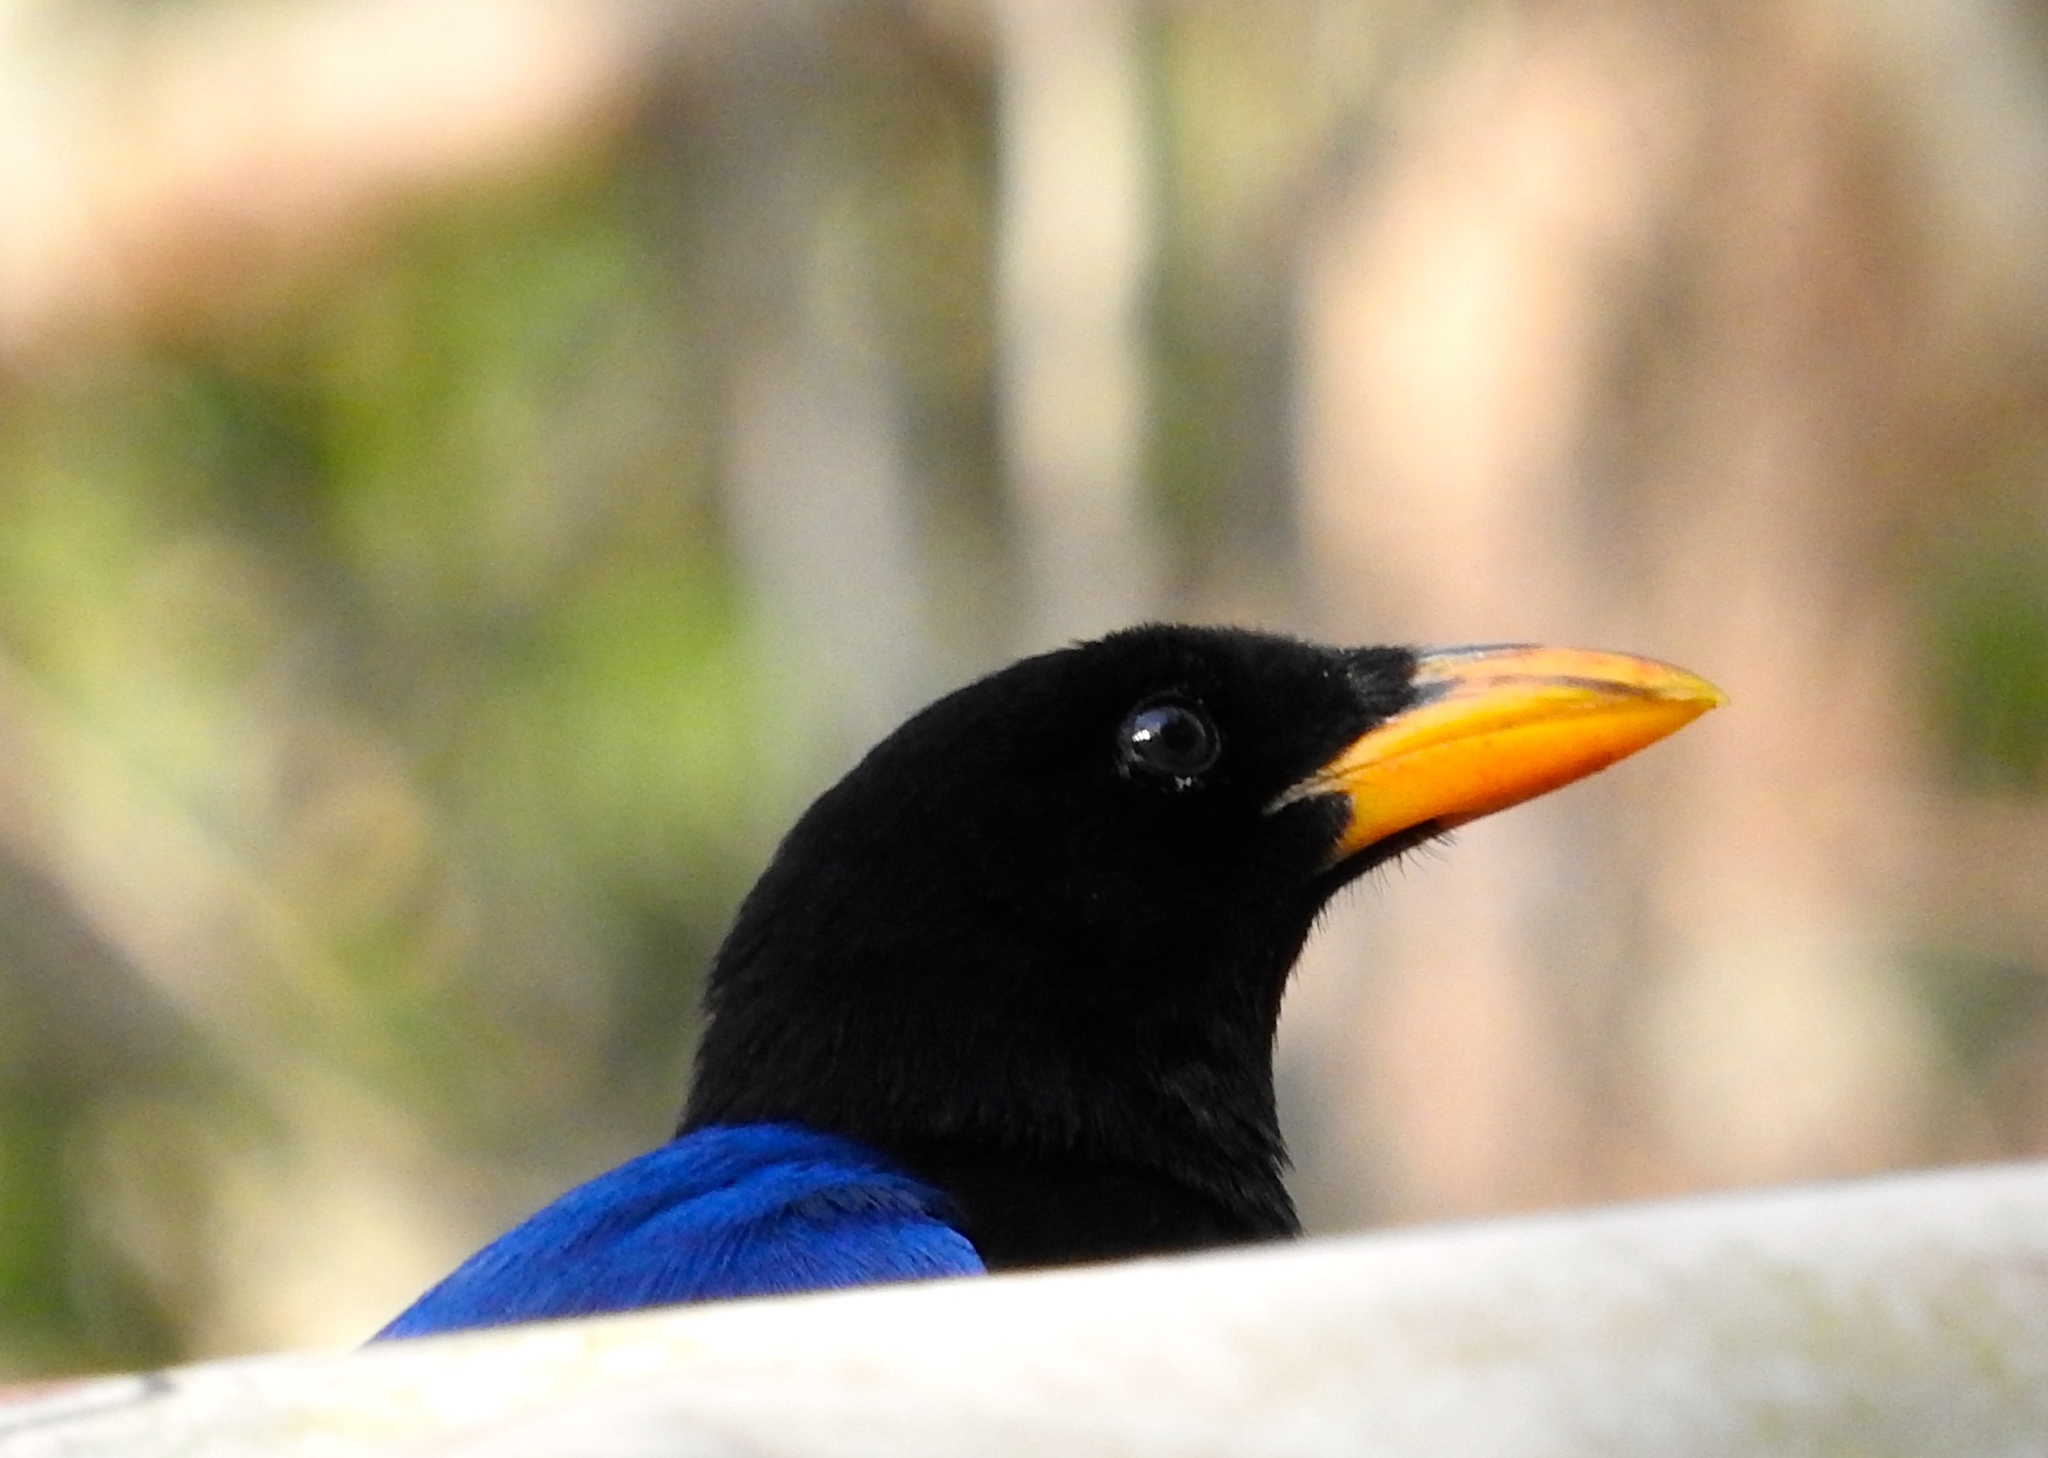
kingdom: Animalia
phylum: Chordata
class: Aves
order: Passeriformes
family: Corvidae
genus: Cyanocorax
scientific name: Cyanocorax beecheii
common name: Purplish-backed jay
